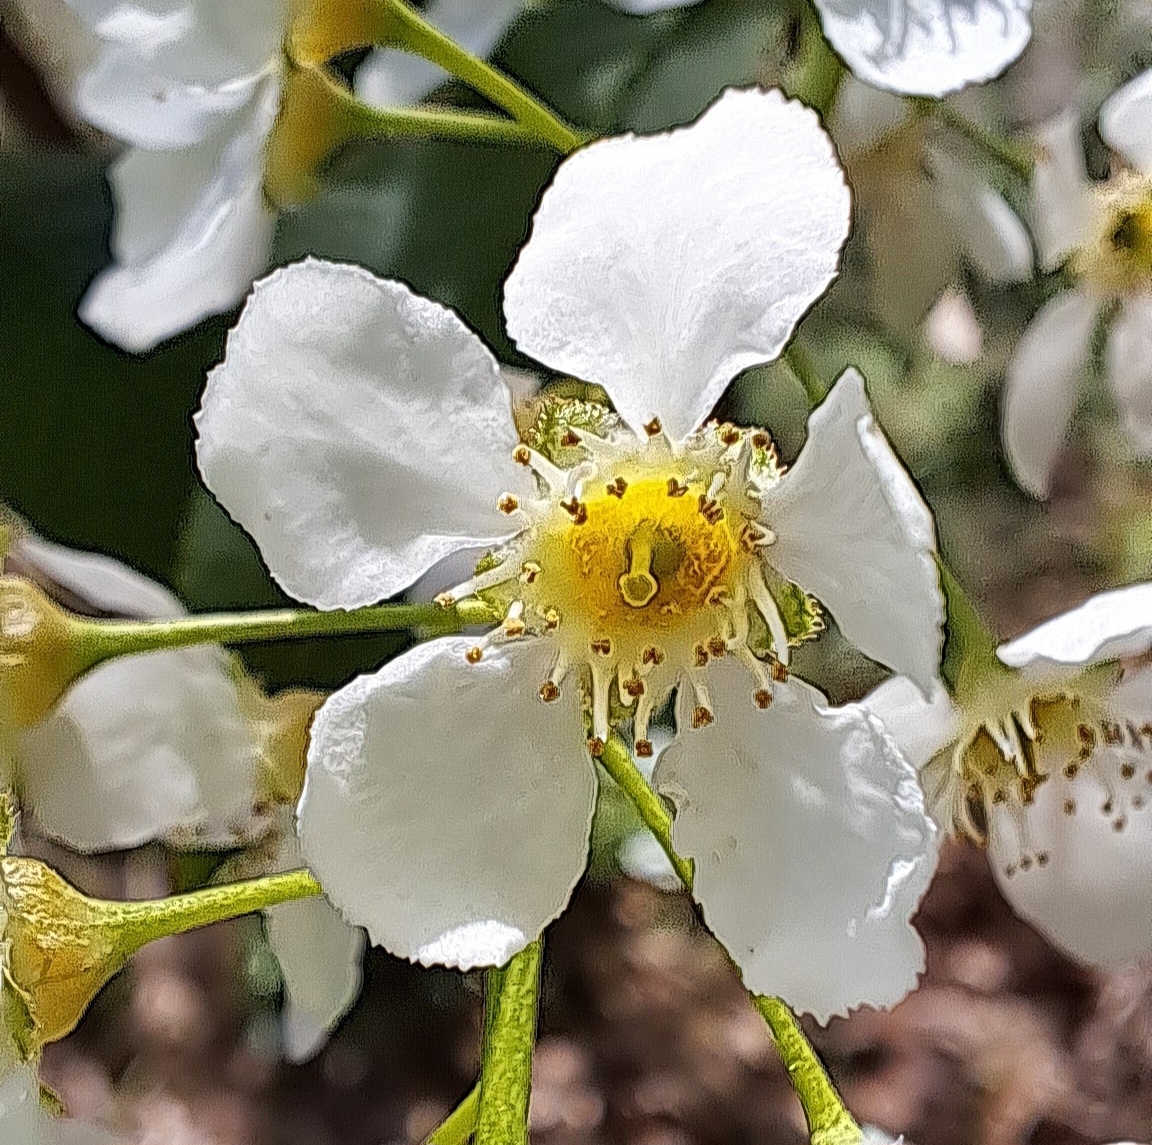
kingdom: Plantae
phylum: Tracheophyta
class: Magnoliopsida
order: Rosales
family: Rosaceae
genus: Prunus
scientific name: Prunus padus
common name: Bird cherry
